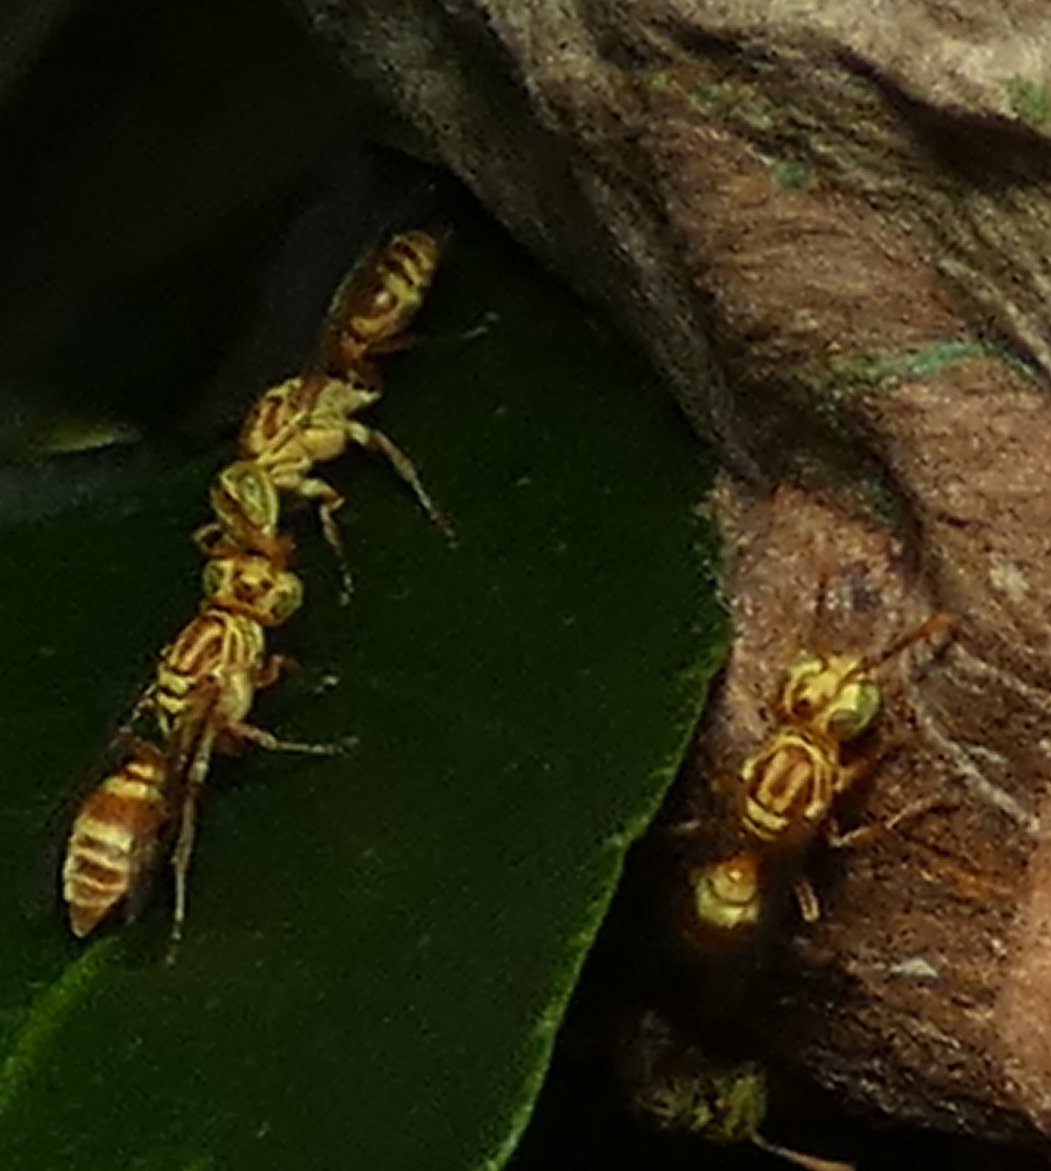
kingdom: Animalia
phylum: Arthropoda
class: Insecta
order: Hymenoptera
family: Vespidae
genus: Protopolybia
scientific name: Protopolybia potiguara
